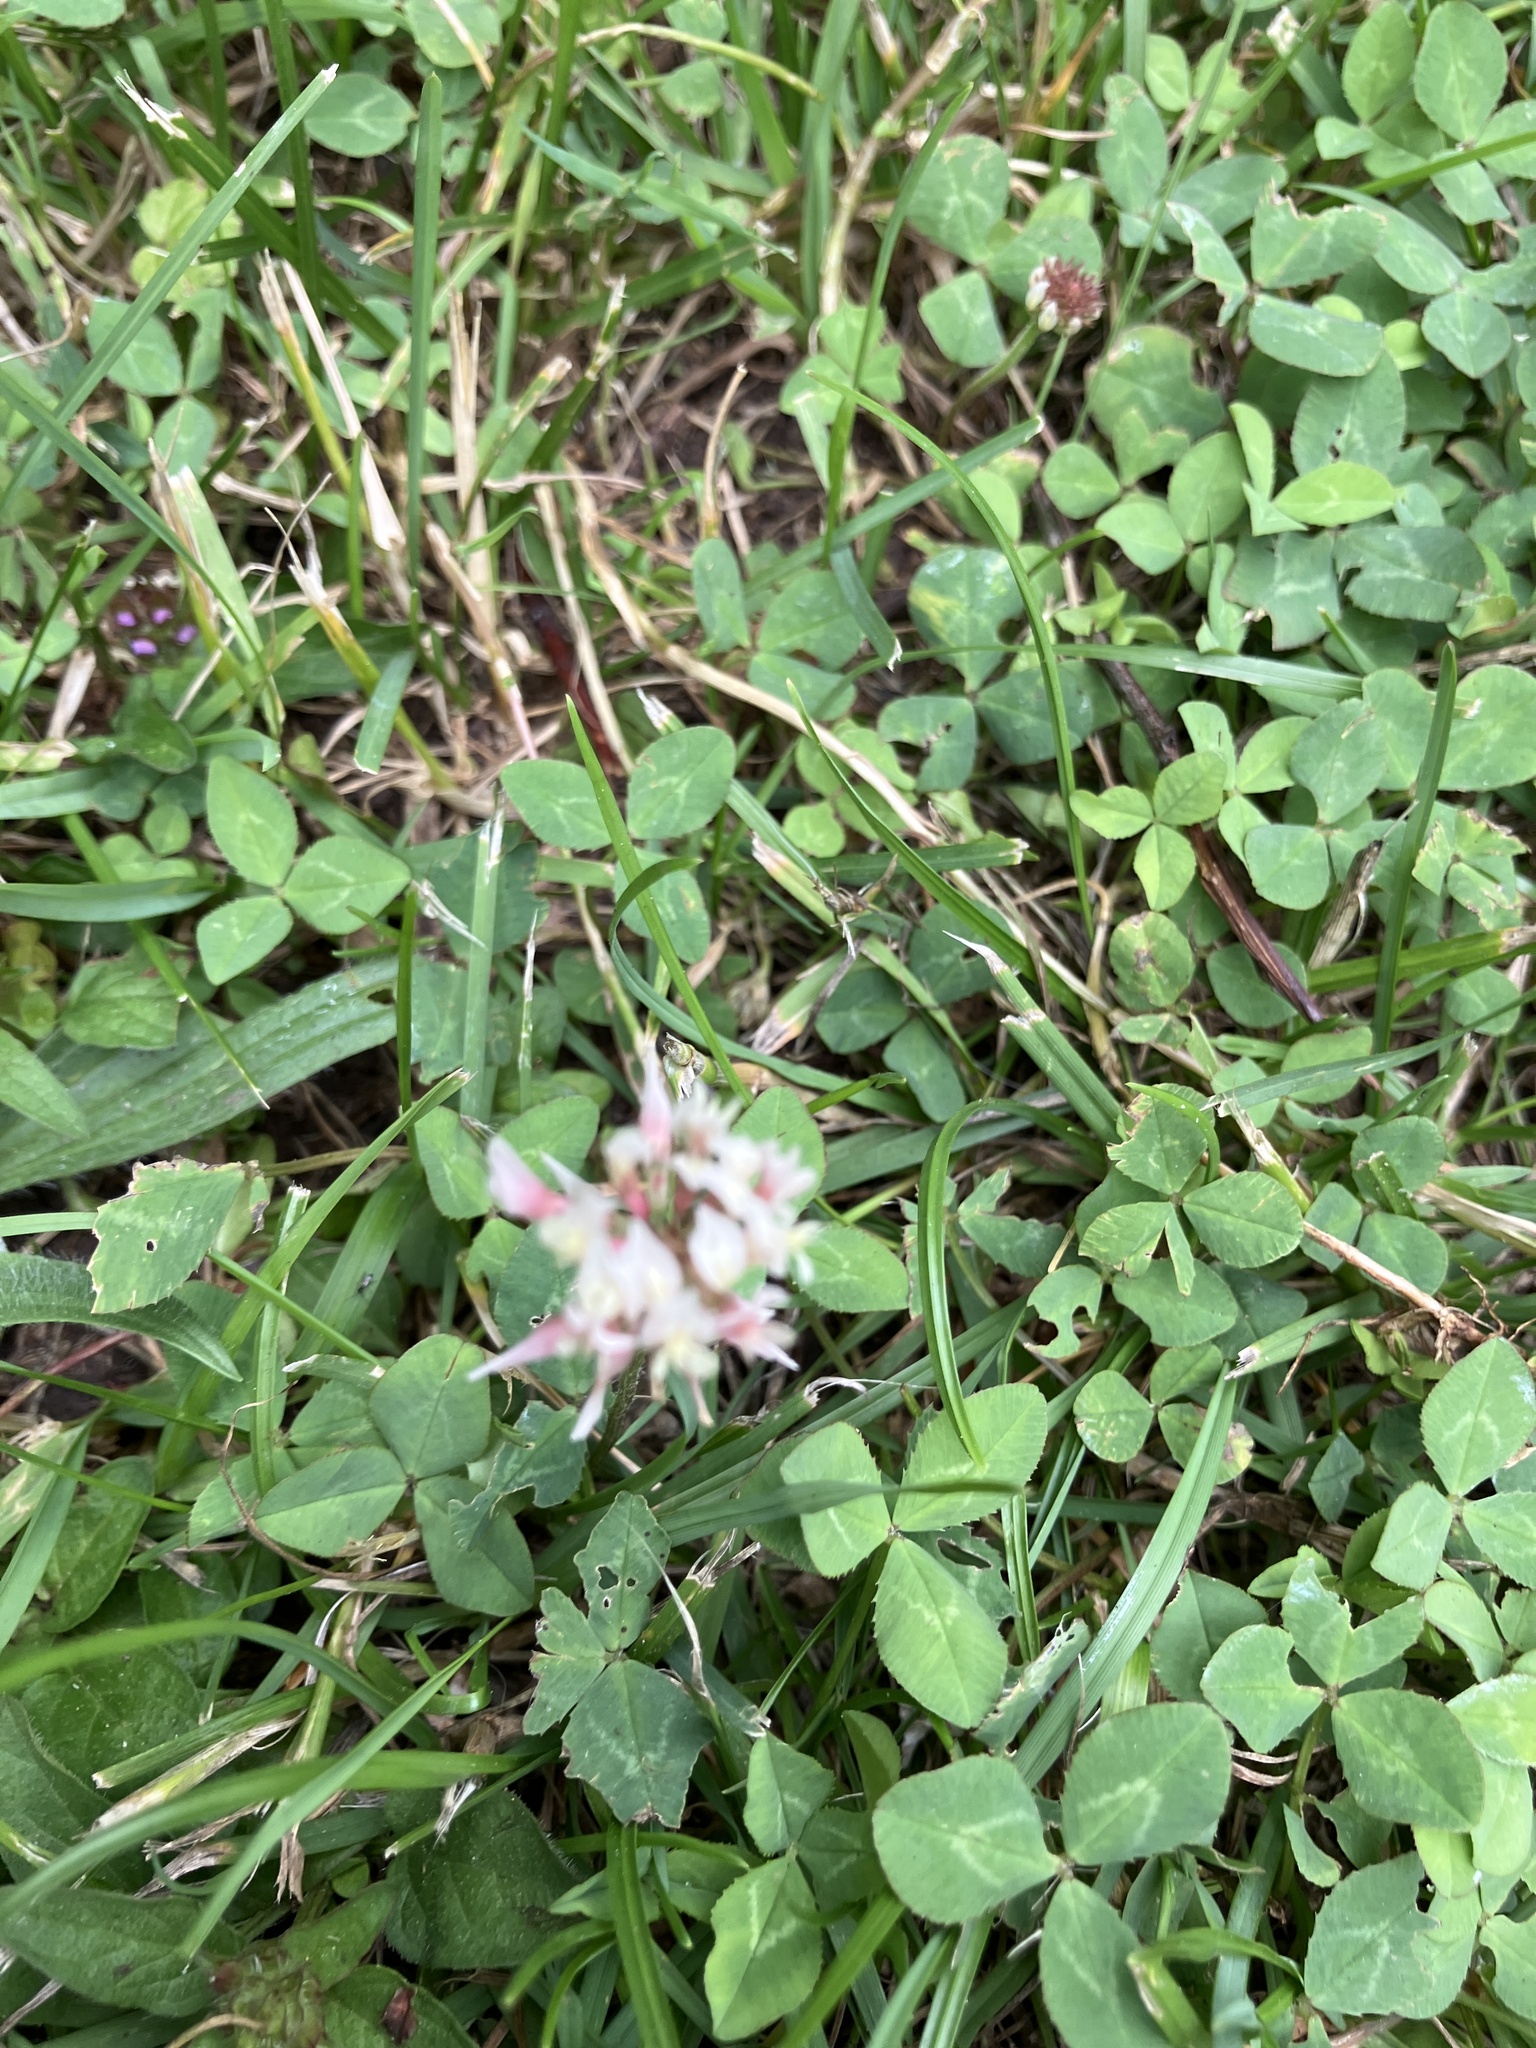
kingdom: Plantae
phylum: Tracheophyta
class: Magnoliopsida
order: Fabales
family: Fabaceae
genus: Trifolium
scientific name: Trifolium repens
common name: White clover
